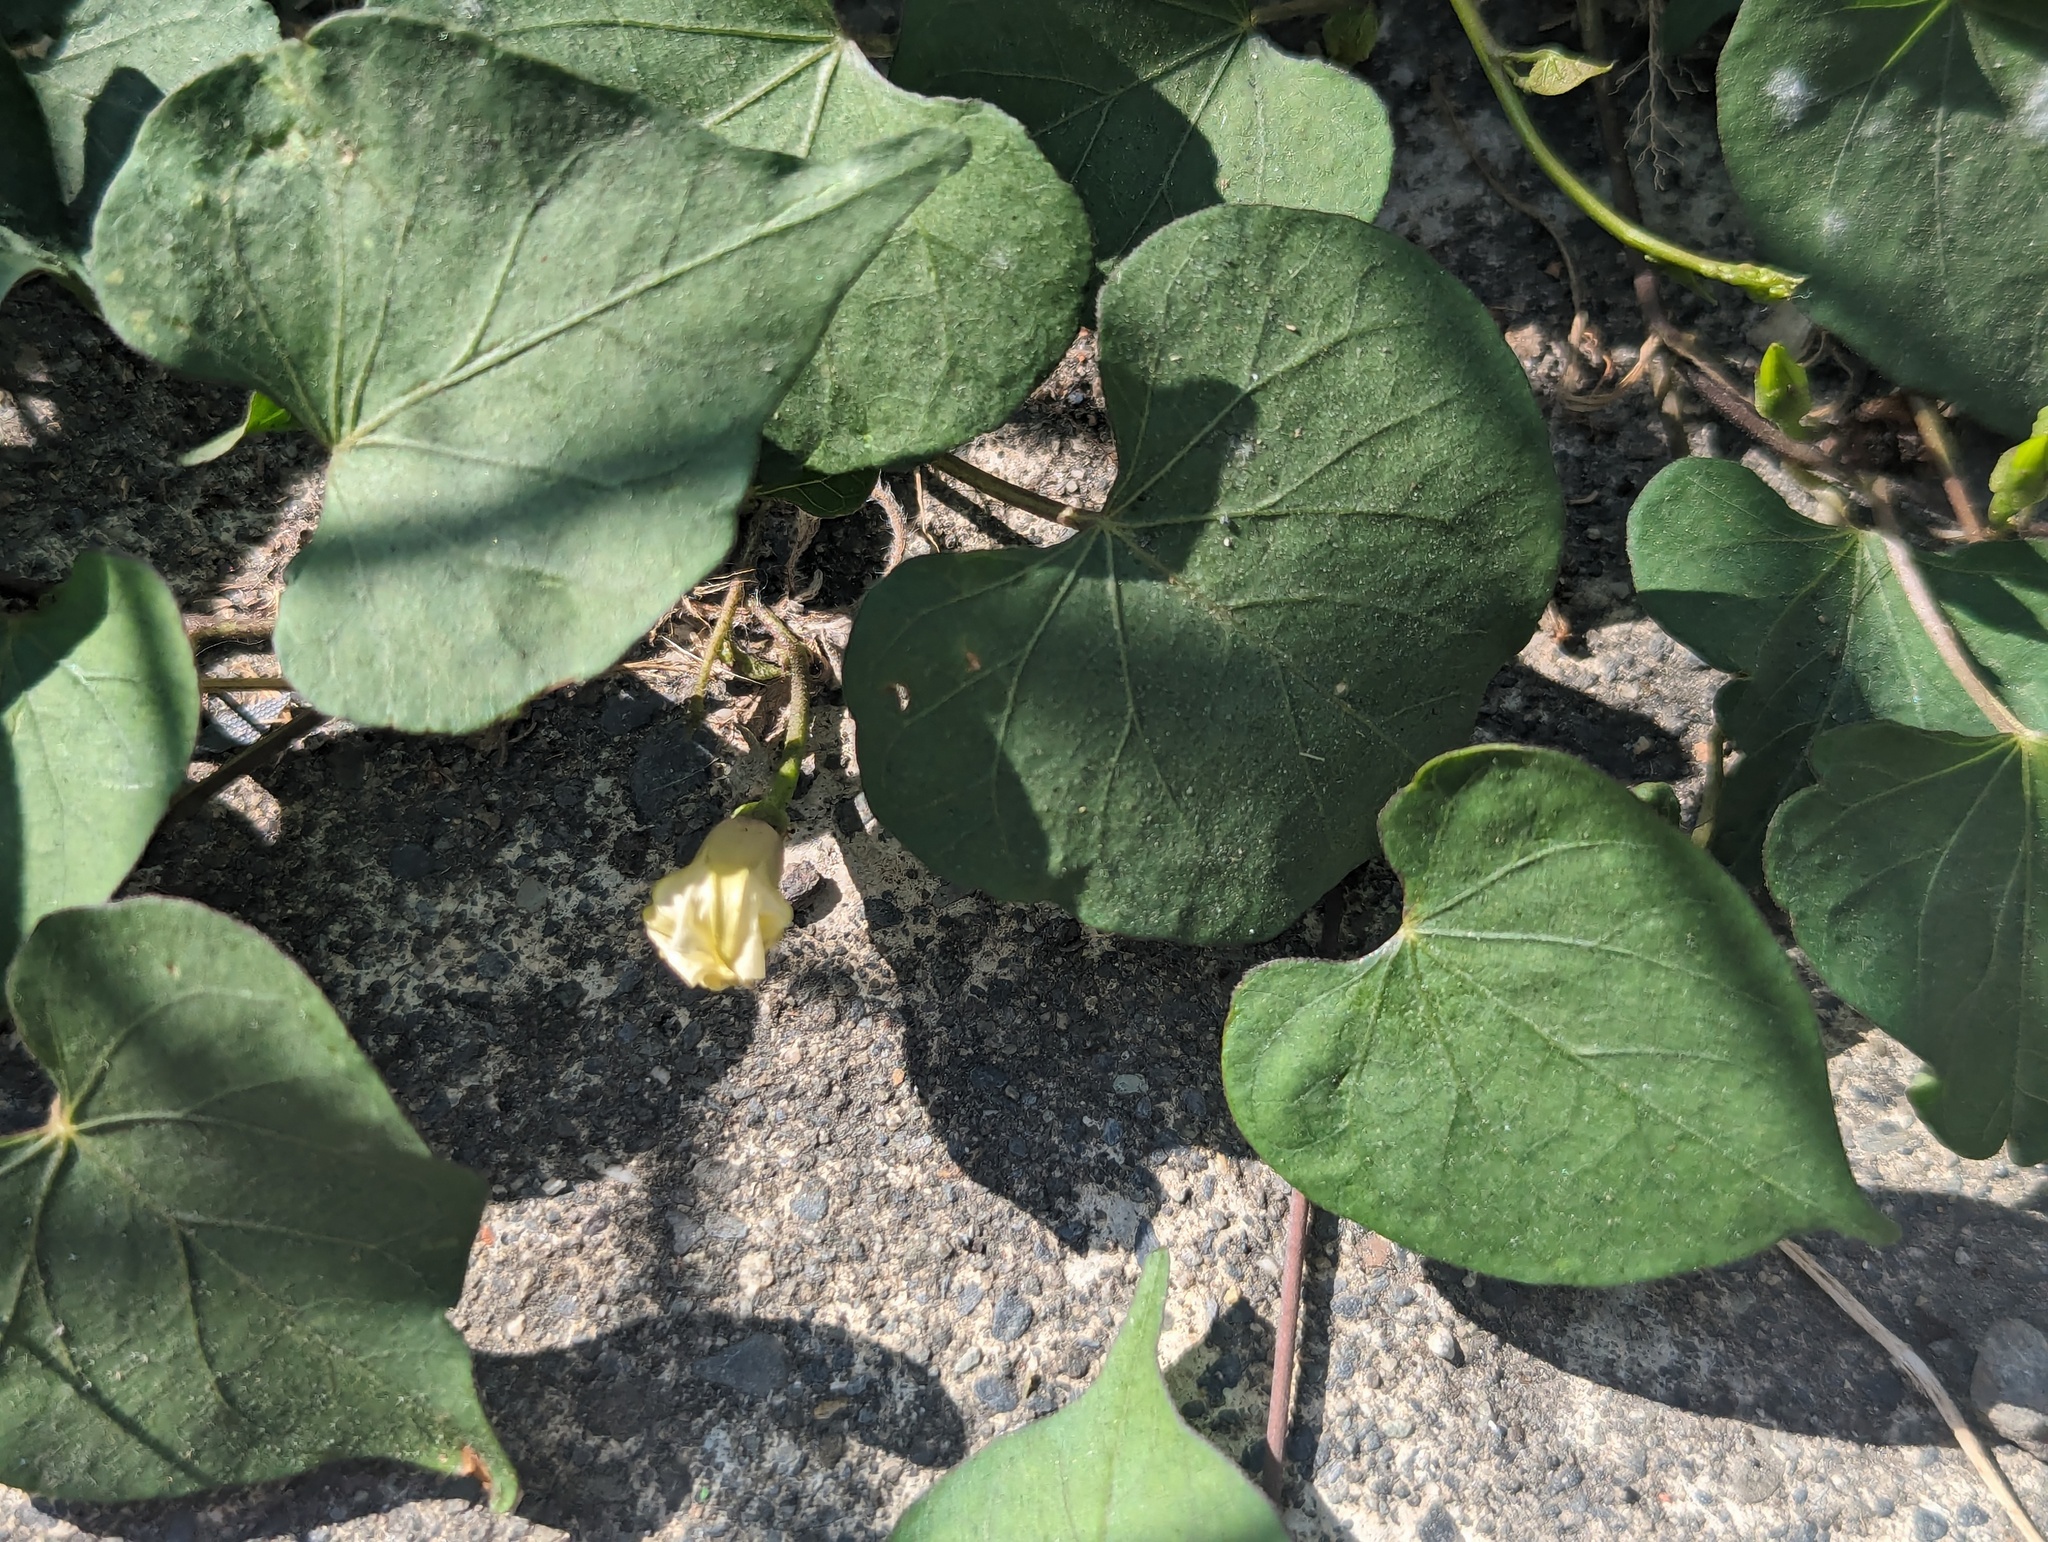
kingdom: Plantae
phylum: Tracheophyta
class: Magnoliopsida
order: Solanales
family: Convolvulaceae
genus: Ipomoea
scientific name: Ipomoea obscura
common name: Obscure morning-glory
